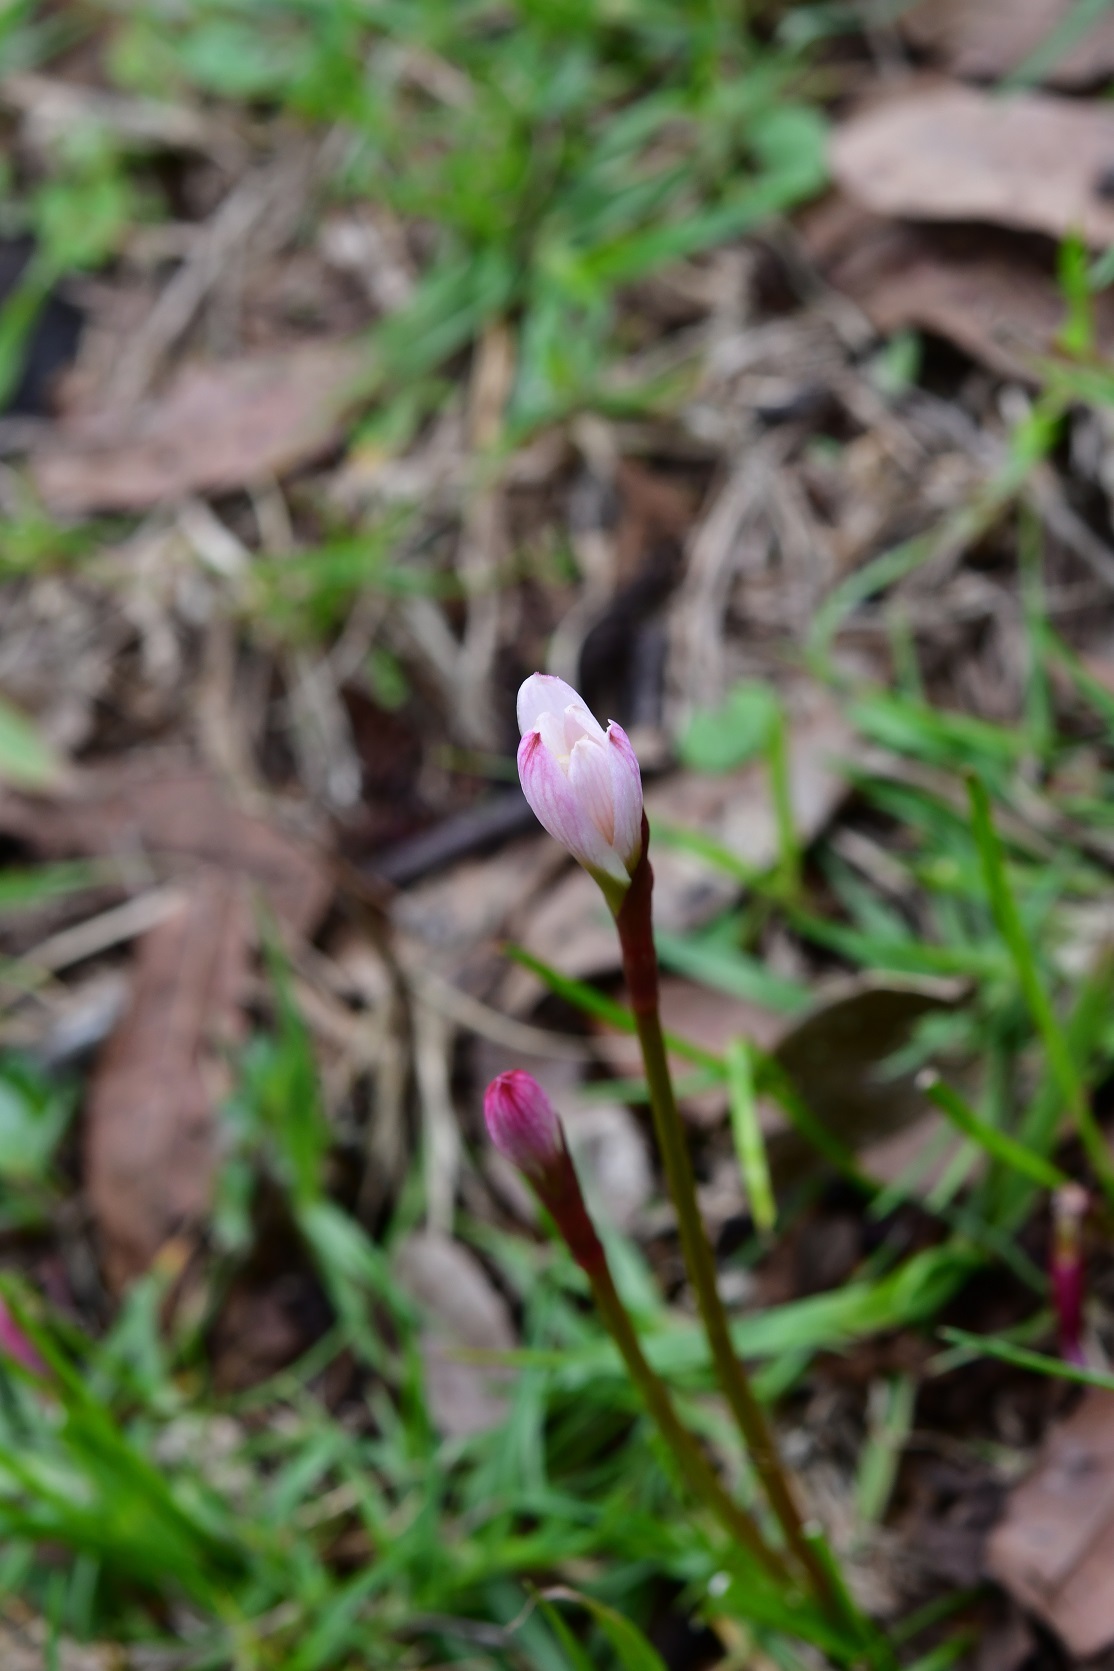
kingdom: Plantae
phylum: Tracheophyta
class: Liliopsida
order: Asparagales
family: Amaryllidaceae
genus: Zephyranthes
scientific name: Zephyranthes minuta
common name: Pink rain lily
